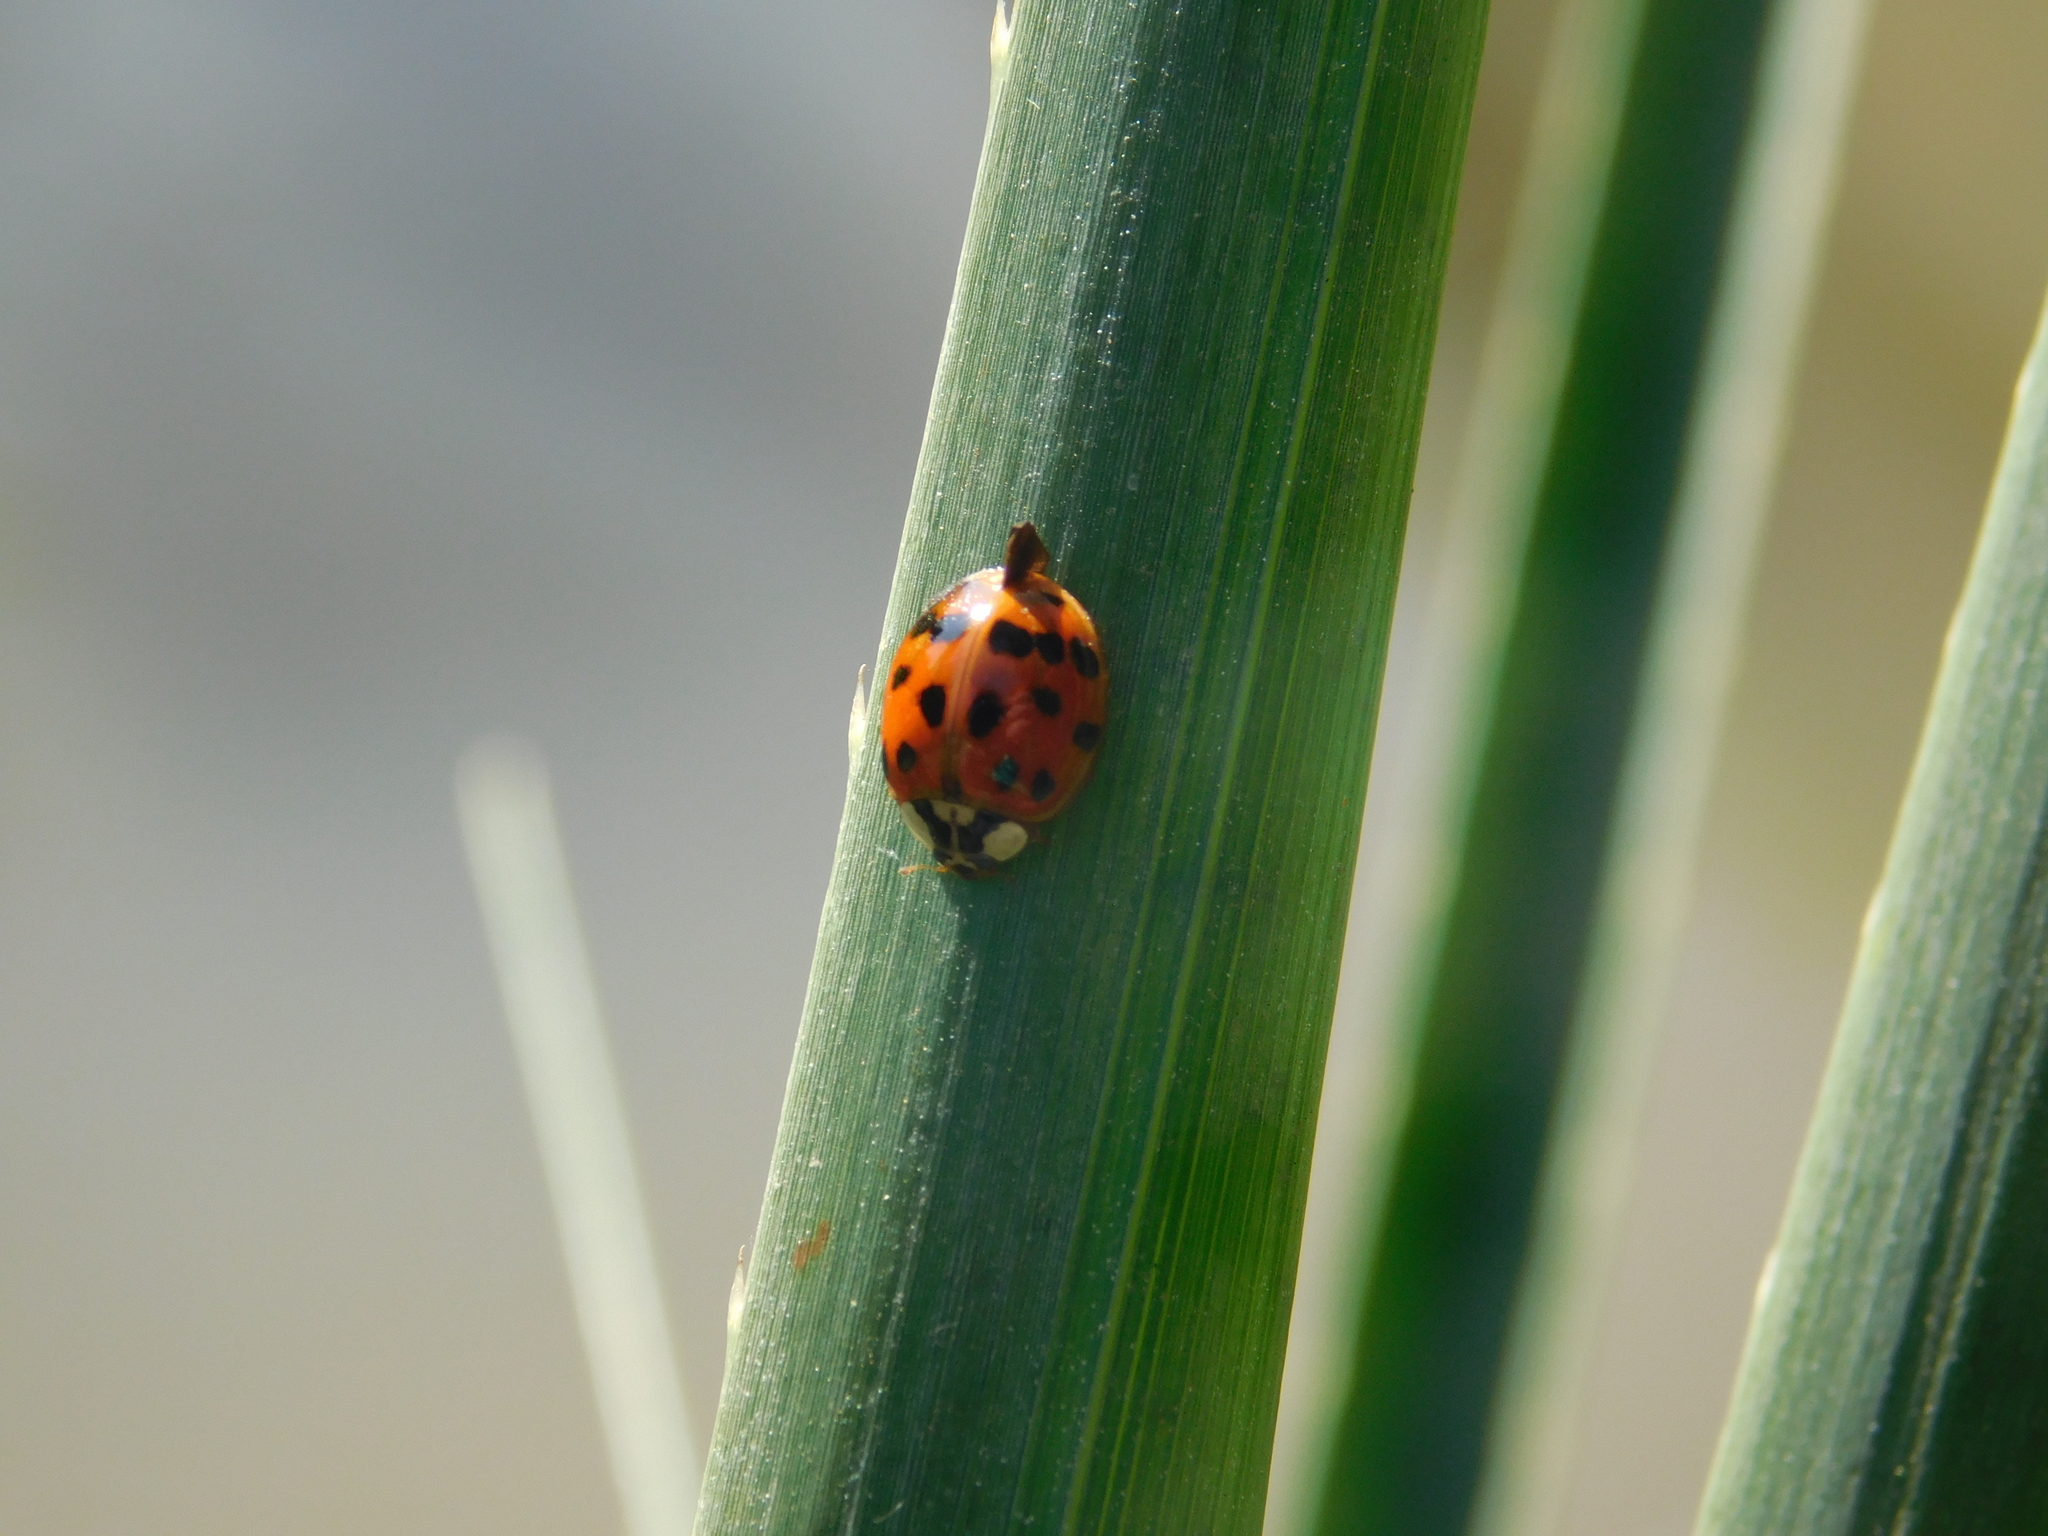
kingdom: Animalia
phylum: Arthropoda
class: Insecta
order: Coleoptera
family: Coccinellidae
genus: Harmonia
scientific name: Harmonia axyridis
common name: Harlequin ladybird
